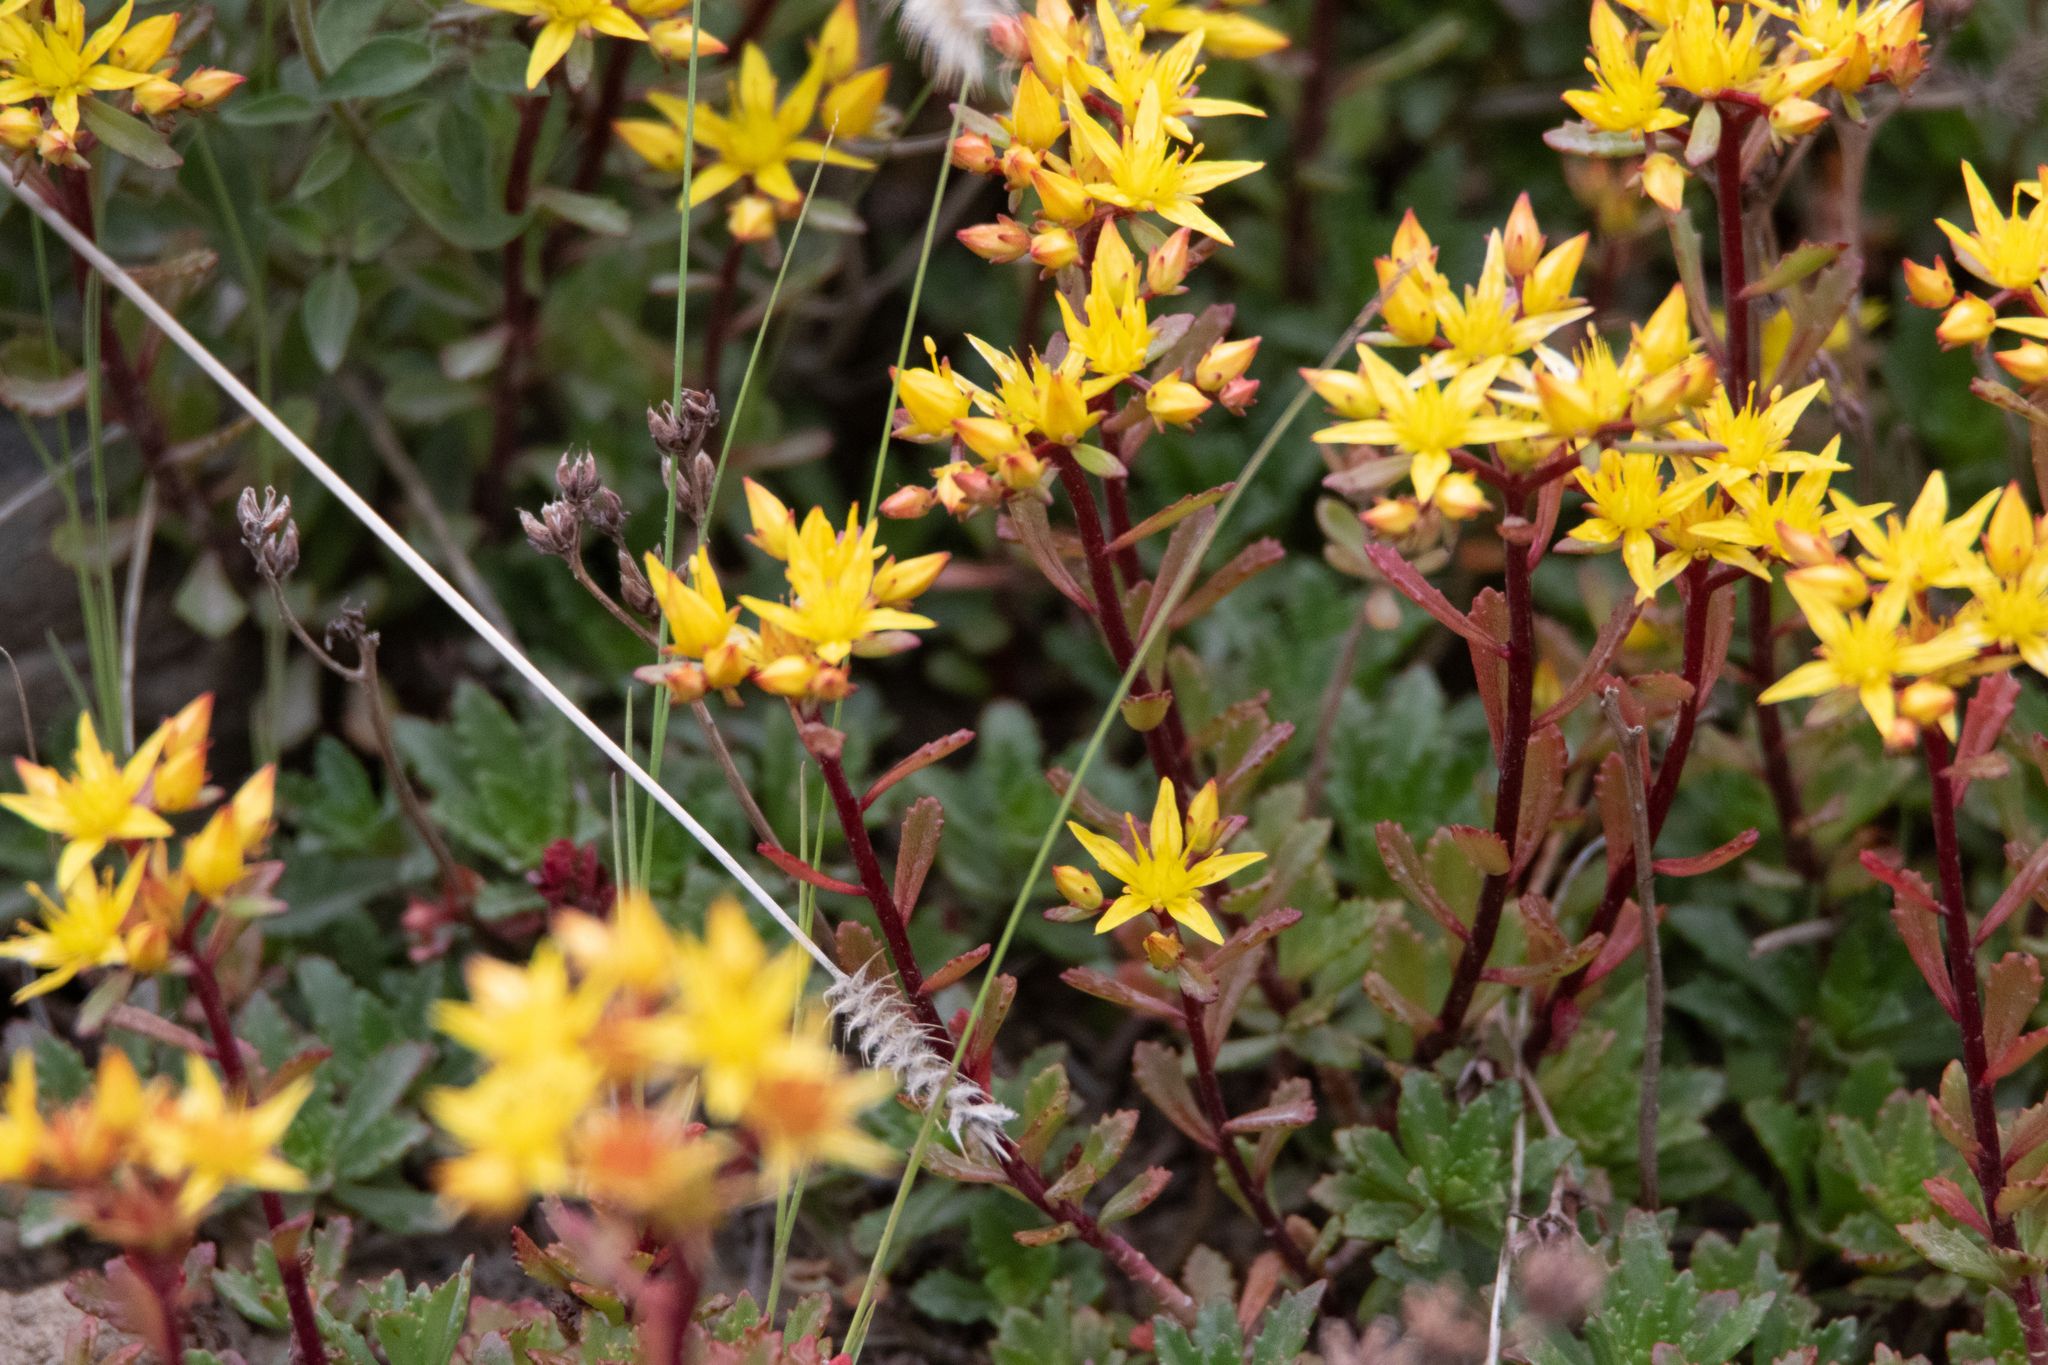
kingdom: Plantae
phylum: Tracheophyta
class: Magnoliopsida
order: Saxifragales
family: Crassulaceae
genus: Phedimus
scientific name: Phedimus hybridus
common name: Hybrid stonecrop
